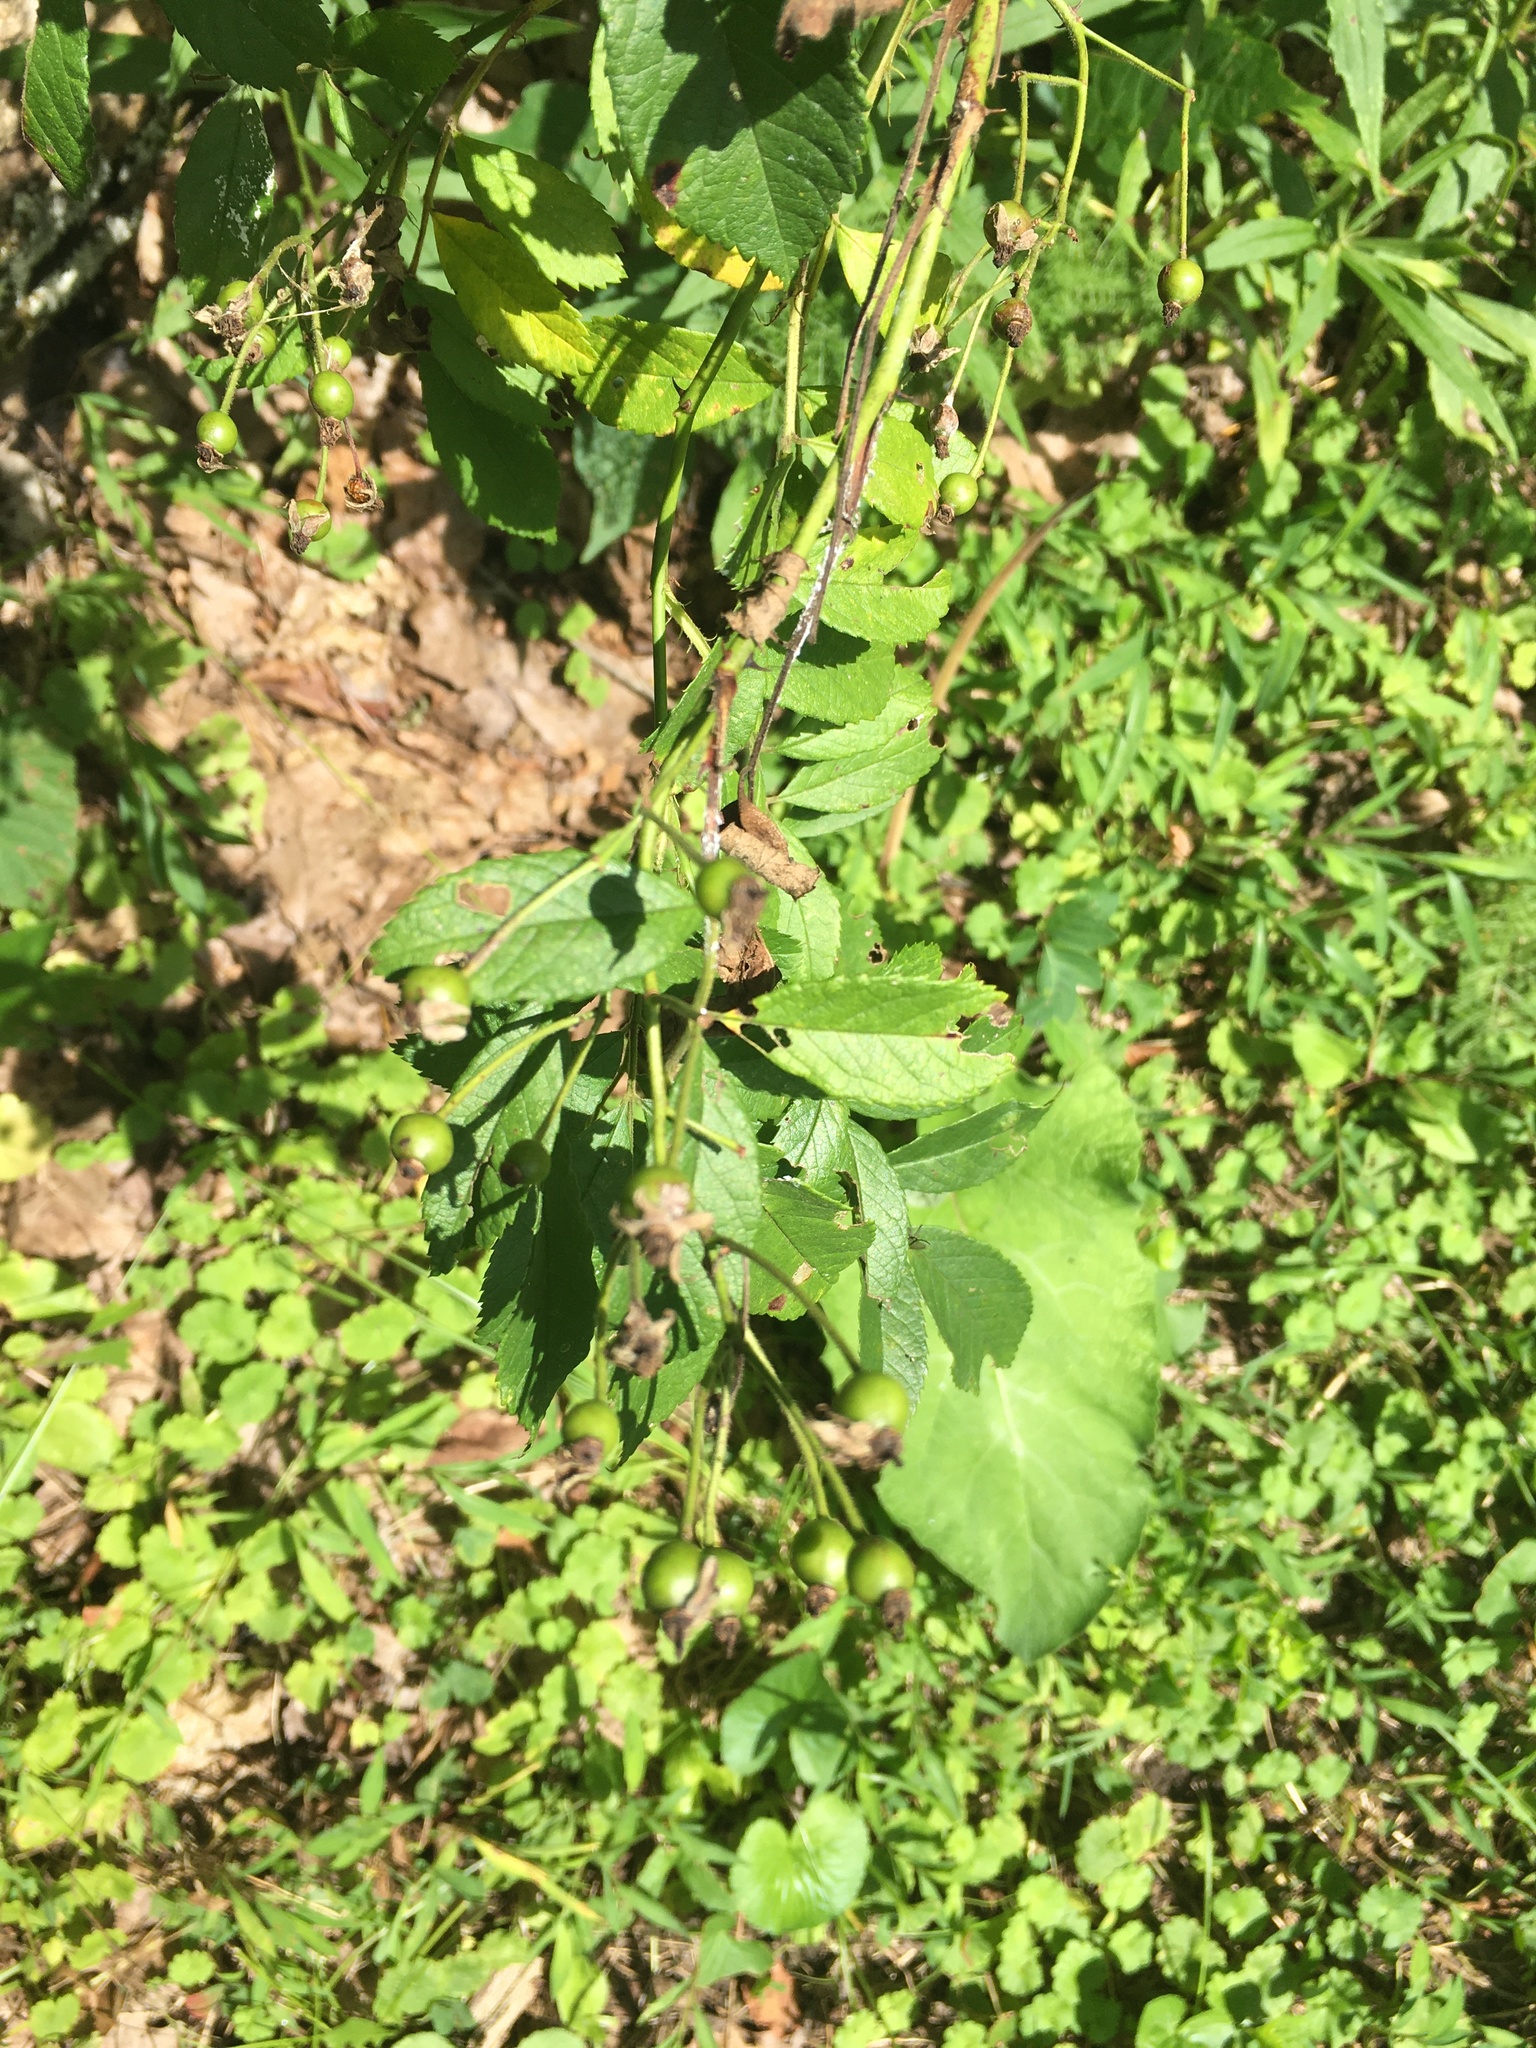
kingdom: Plantae
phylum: Tracheophyta
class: Magnoliopsida
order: Rosales
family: Rosaceae
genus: Rosa
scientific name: Rosa multiflora
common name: Multiflora rose
